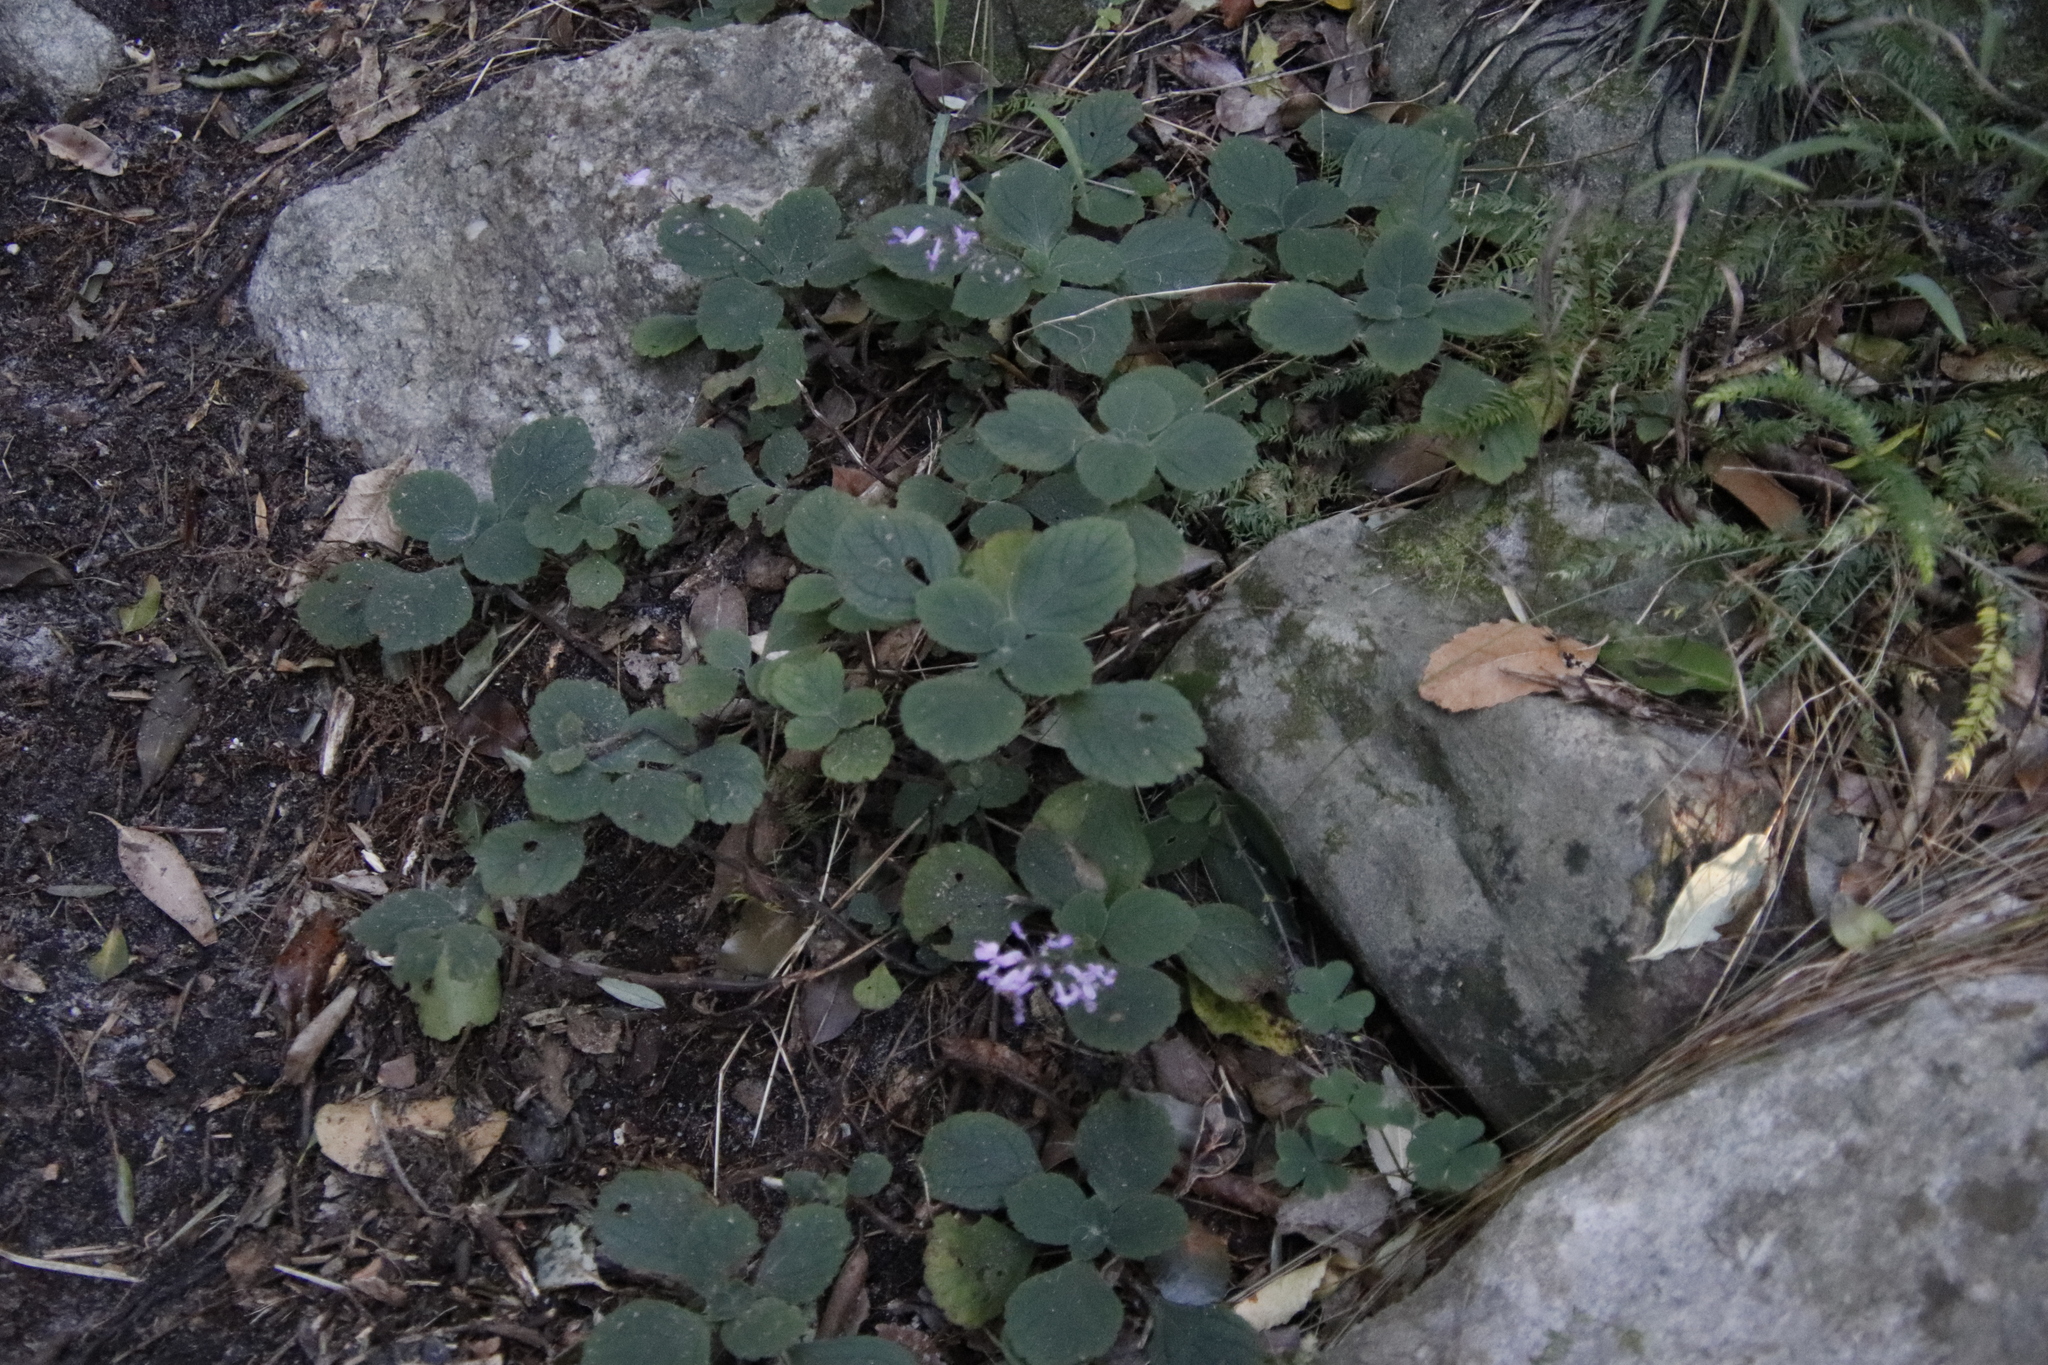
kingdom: Plantae
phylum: Tracheophyta
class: Magnoliopsida
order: Lamiales
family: Lamiaceae
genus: Plectranthus
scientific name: Plectranthus malvinus
